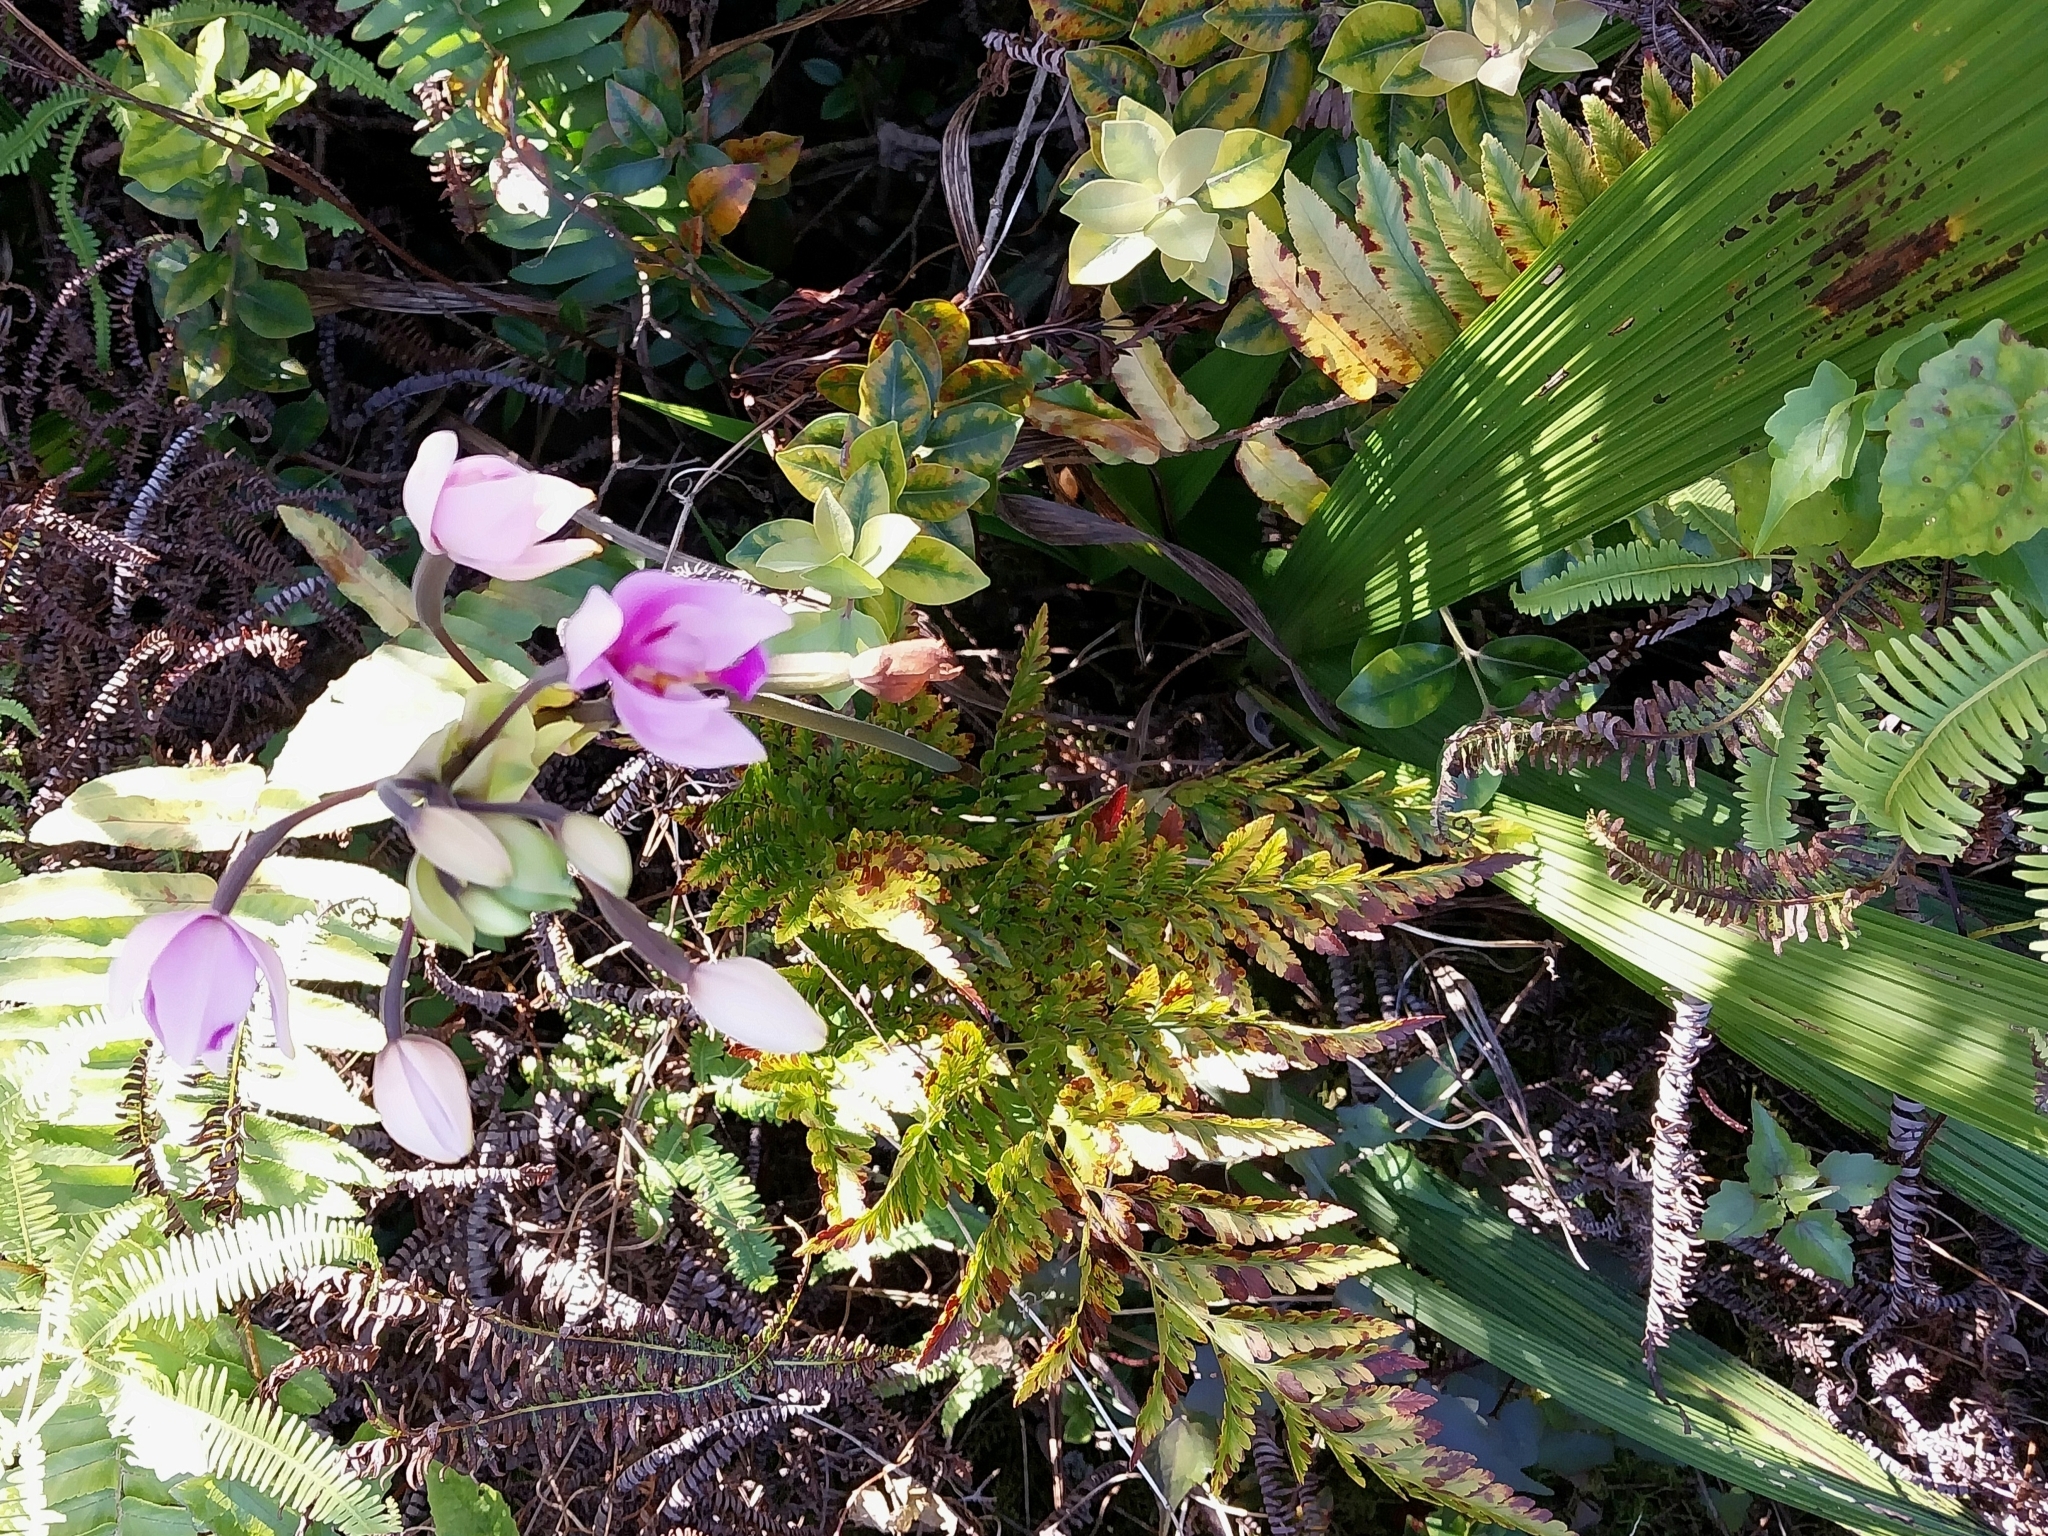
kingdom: Plantae
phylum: Tracheophyta
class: Liliopsida
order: Asparagales
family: Orchidaceae
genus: Spathoglottis
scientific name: Spathoglottis plicata
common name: Philippine ground orchid
